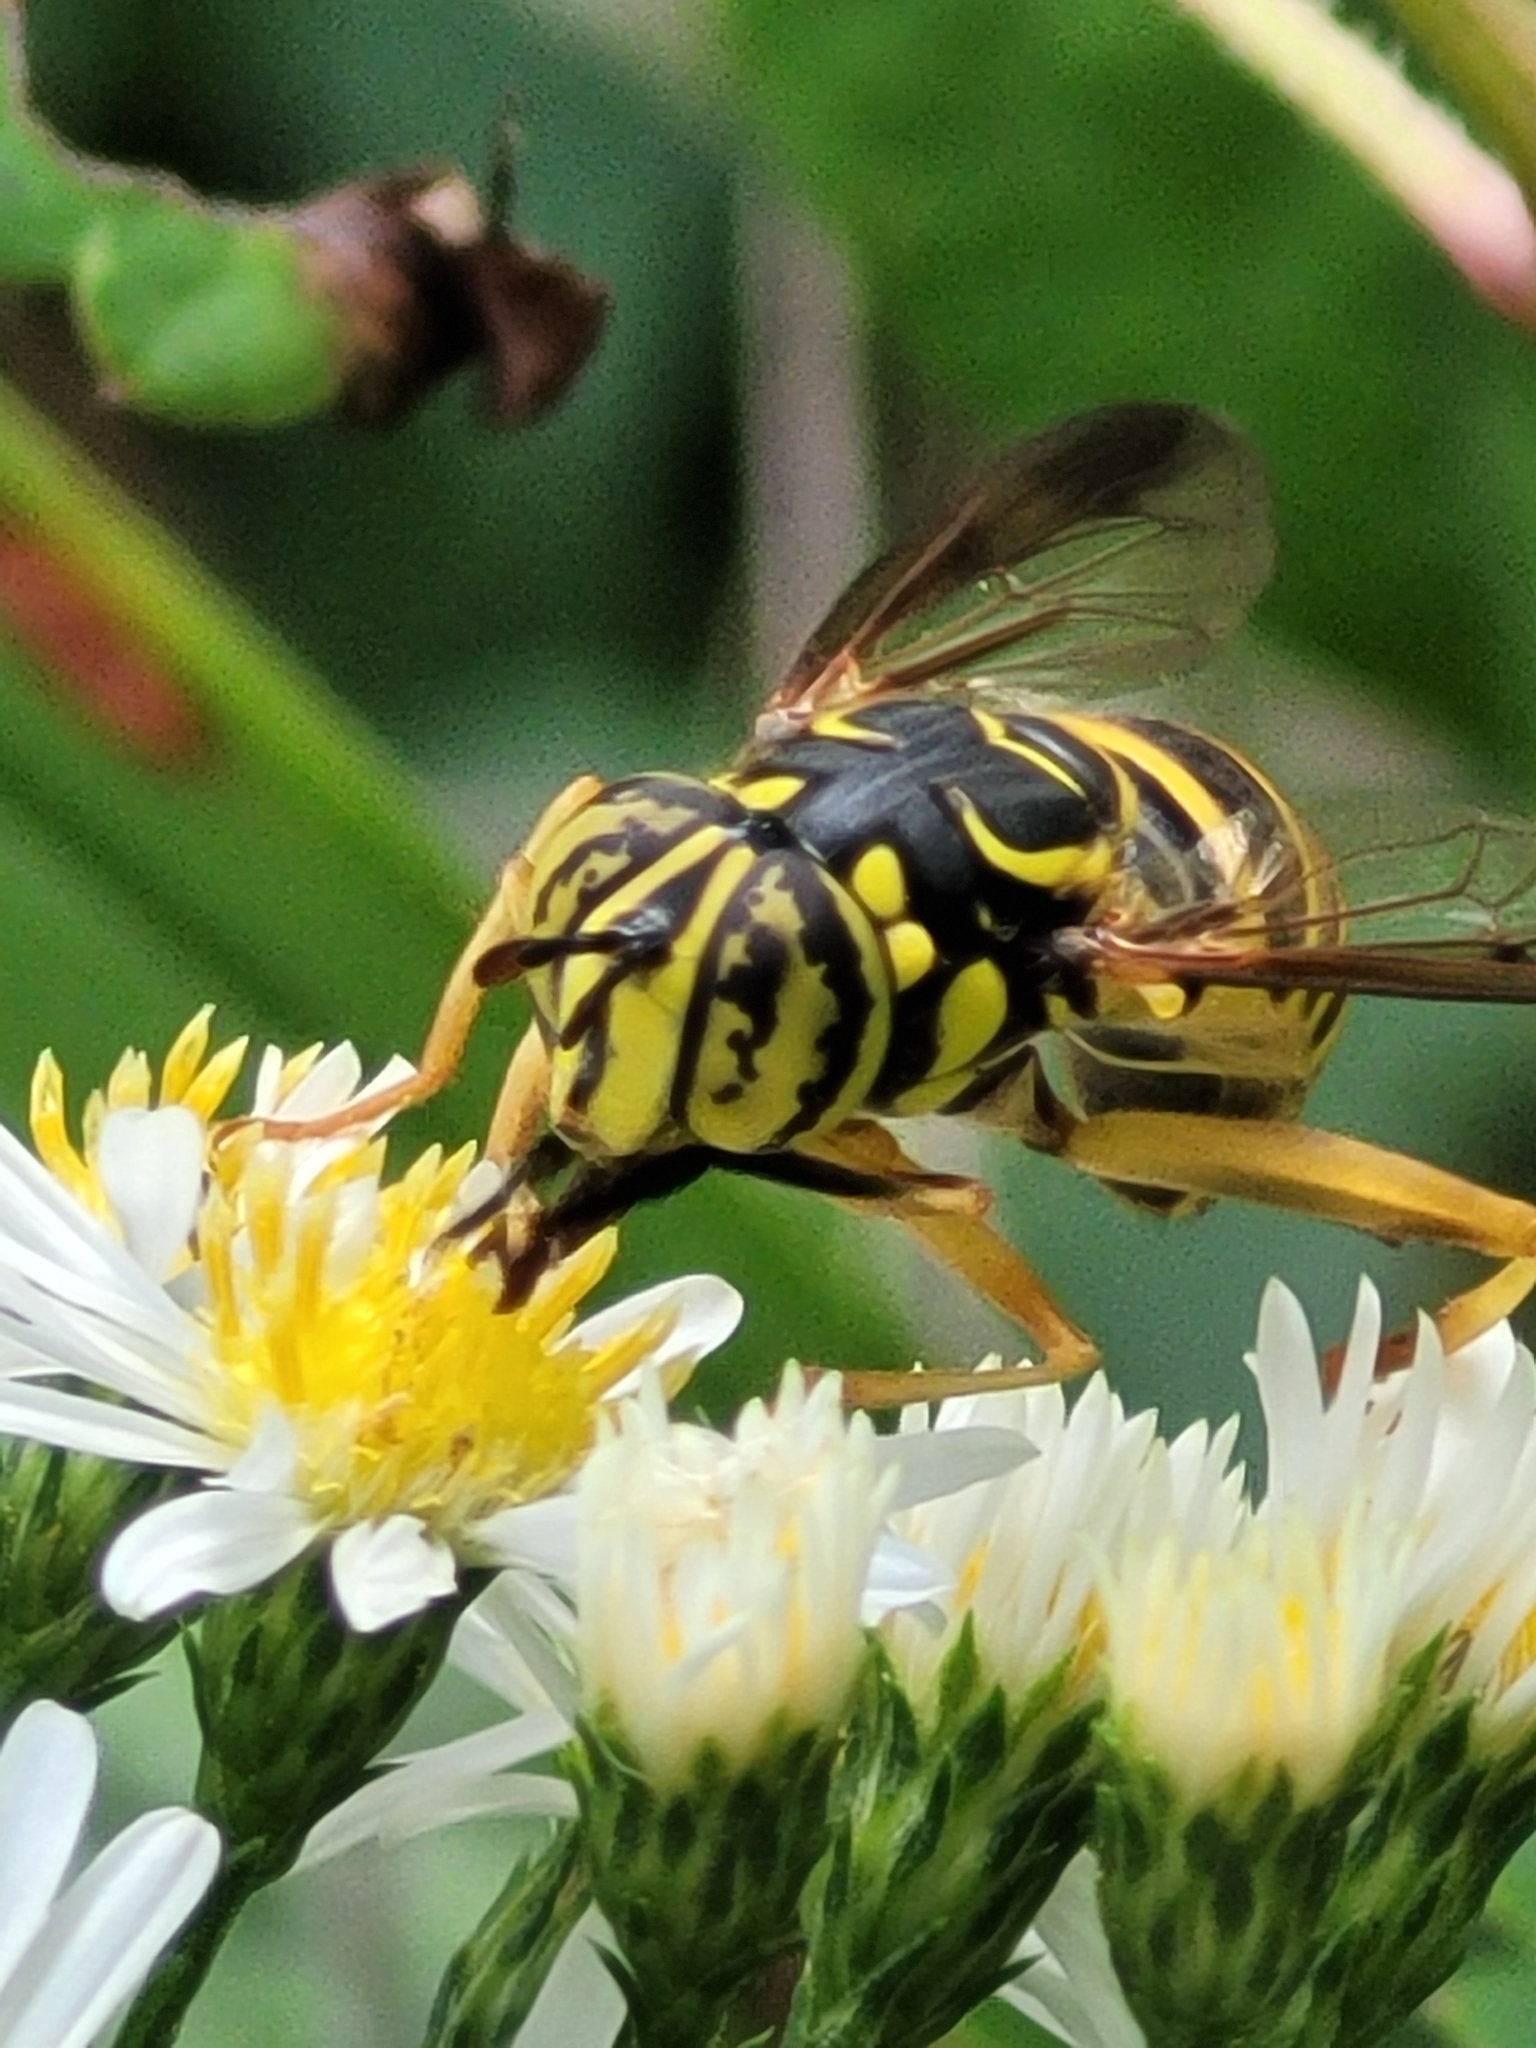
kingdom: Animalia
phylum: Arthropoda
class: Insecta
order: Diptera
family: Syrphidae
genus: Spilomyia
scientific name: Spilomyia longicornis
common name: Eastern hornet fly
